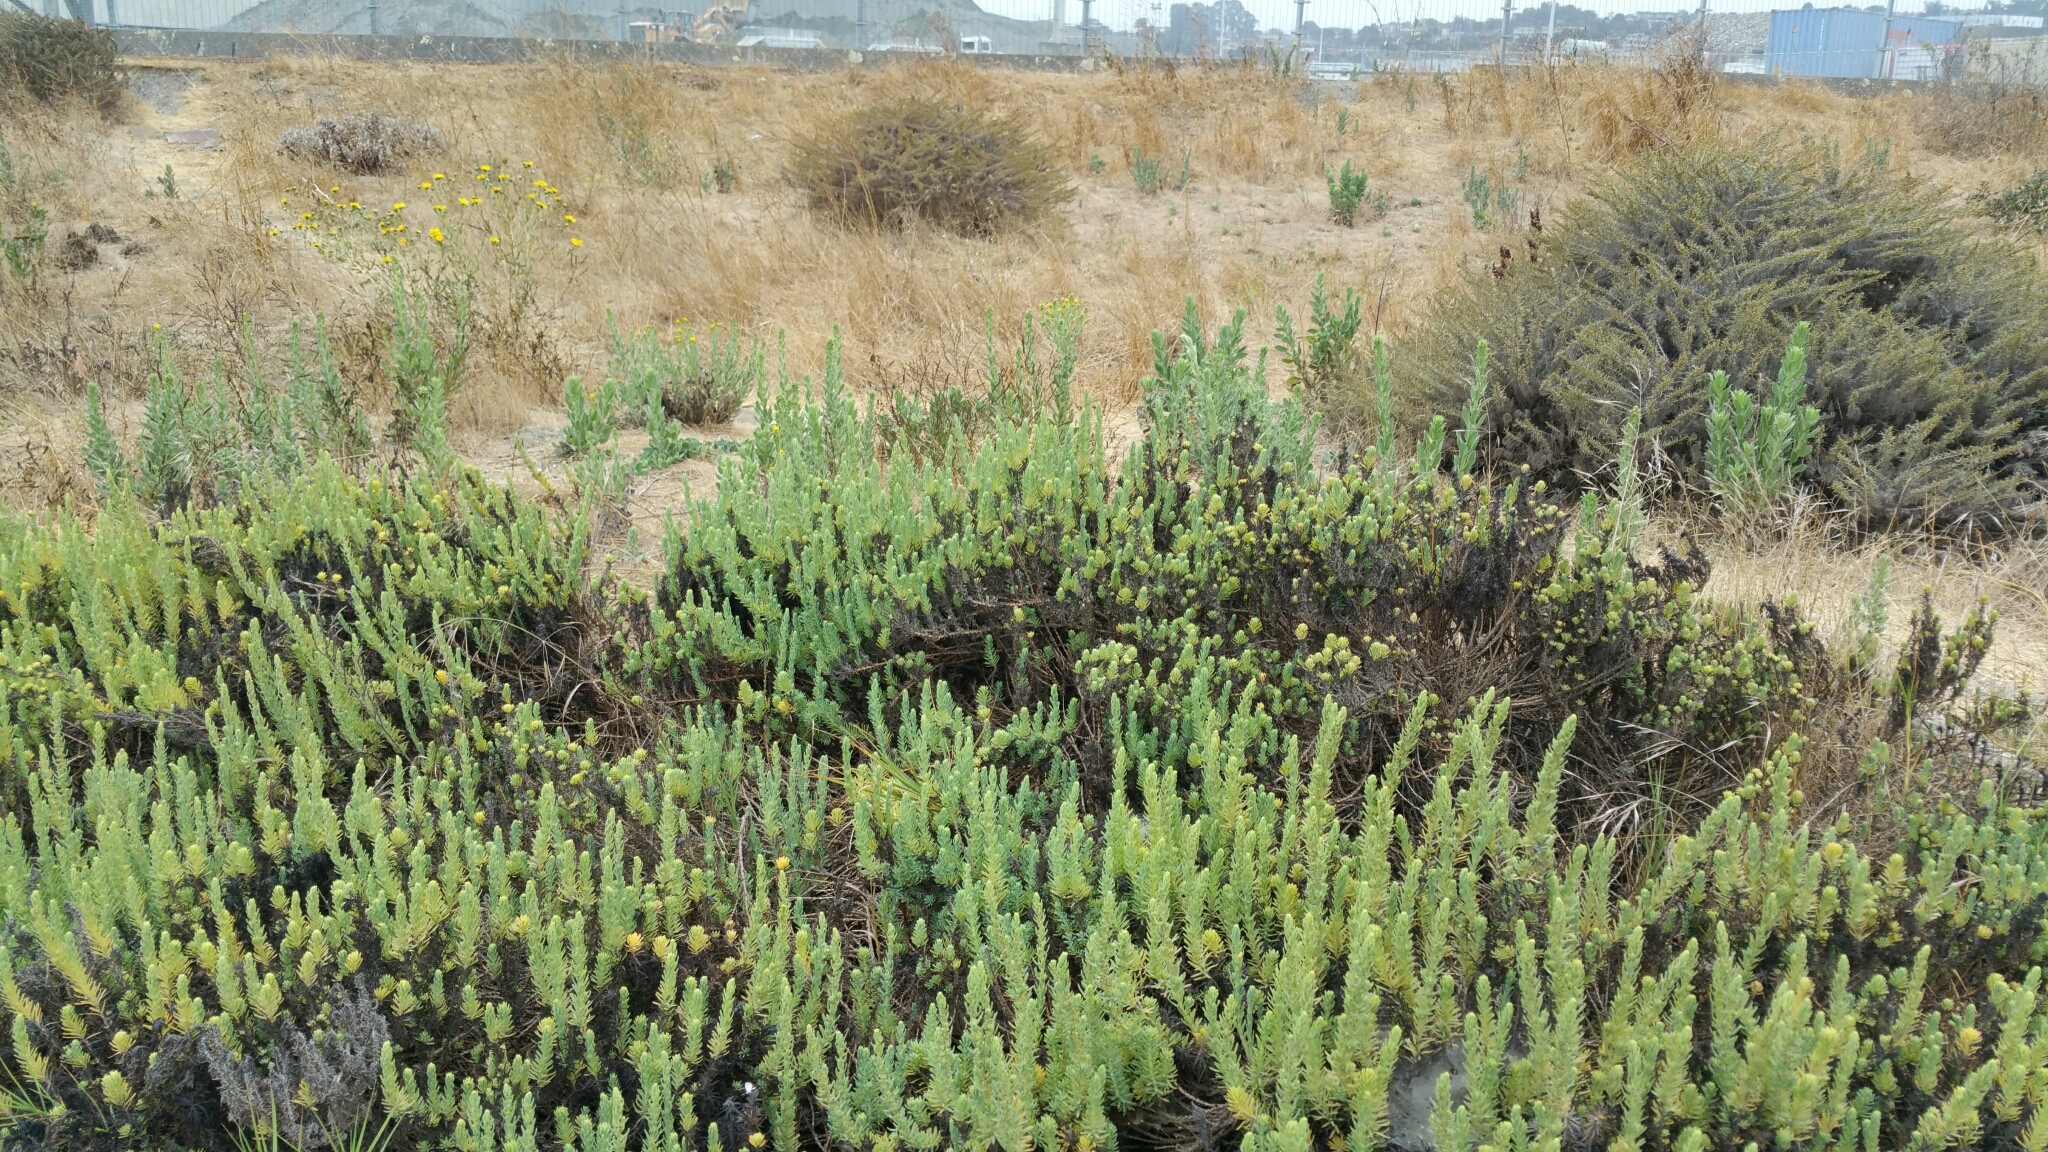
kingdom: Plantae
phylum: Tracheophyta
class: Magnoliopsida
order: Caryophyllales
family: Amaranthaceae
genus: Suaeda
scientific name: Suaeda californica
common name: California sea-blite
